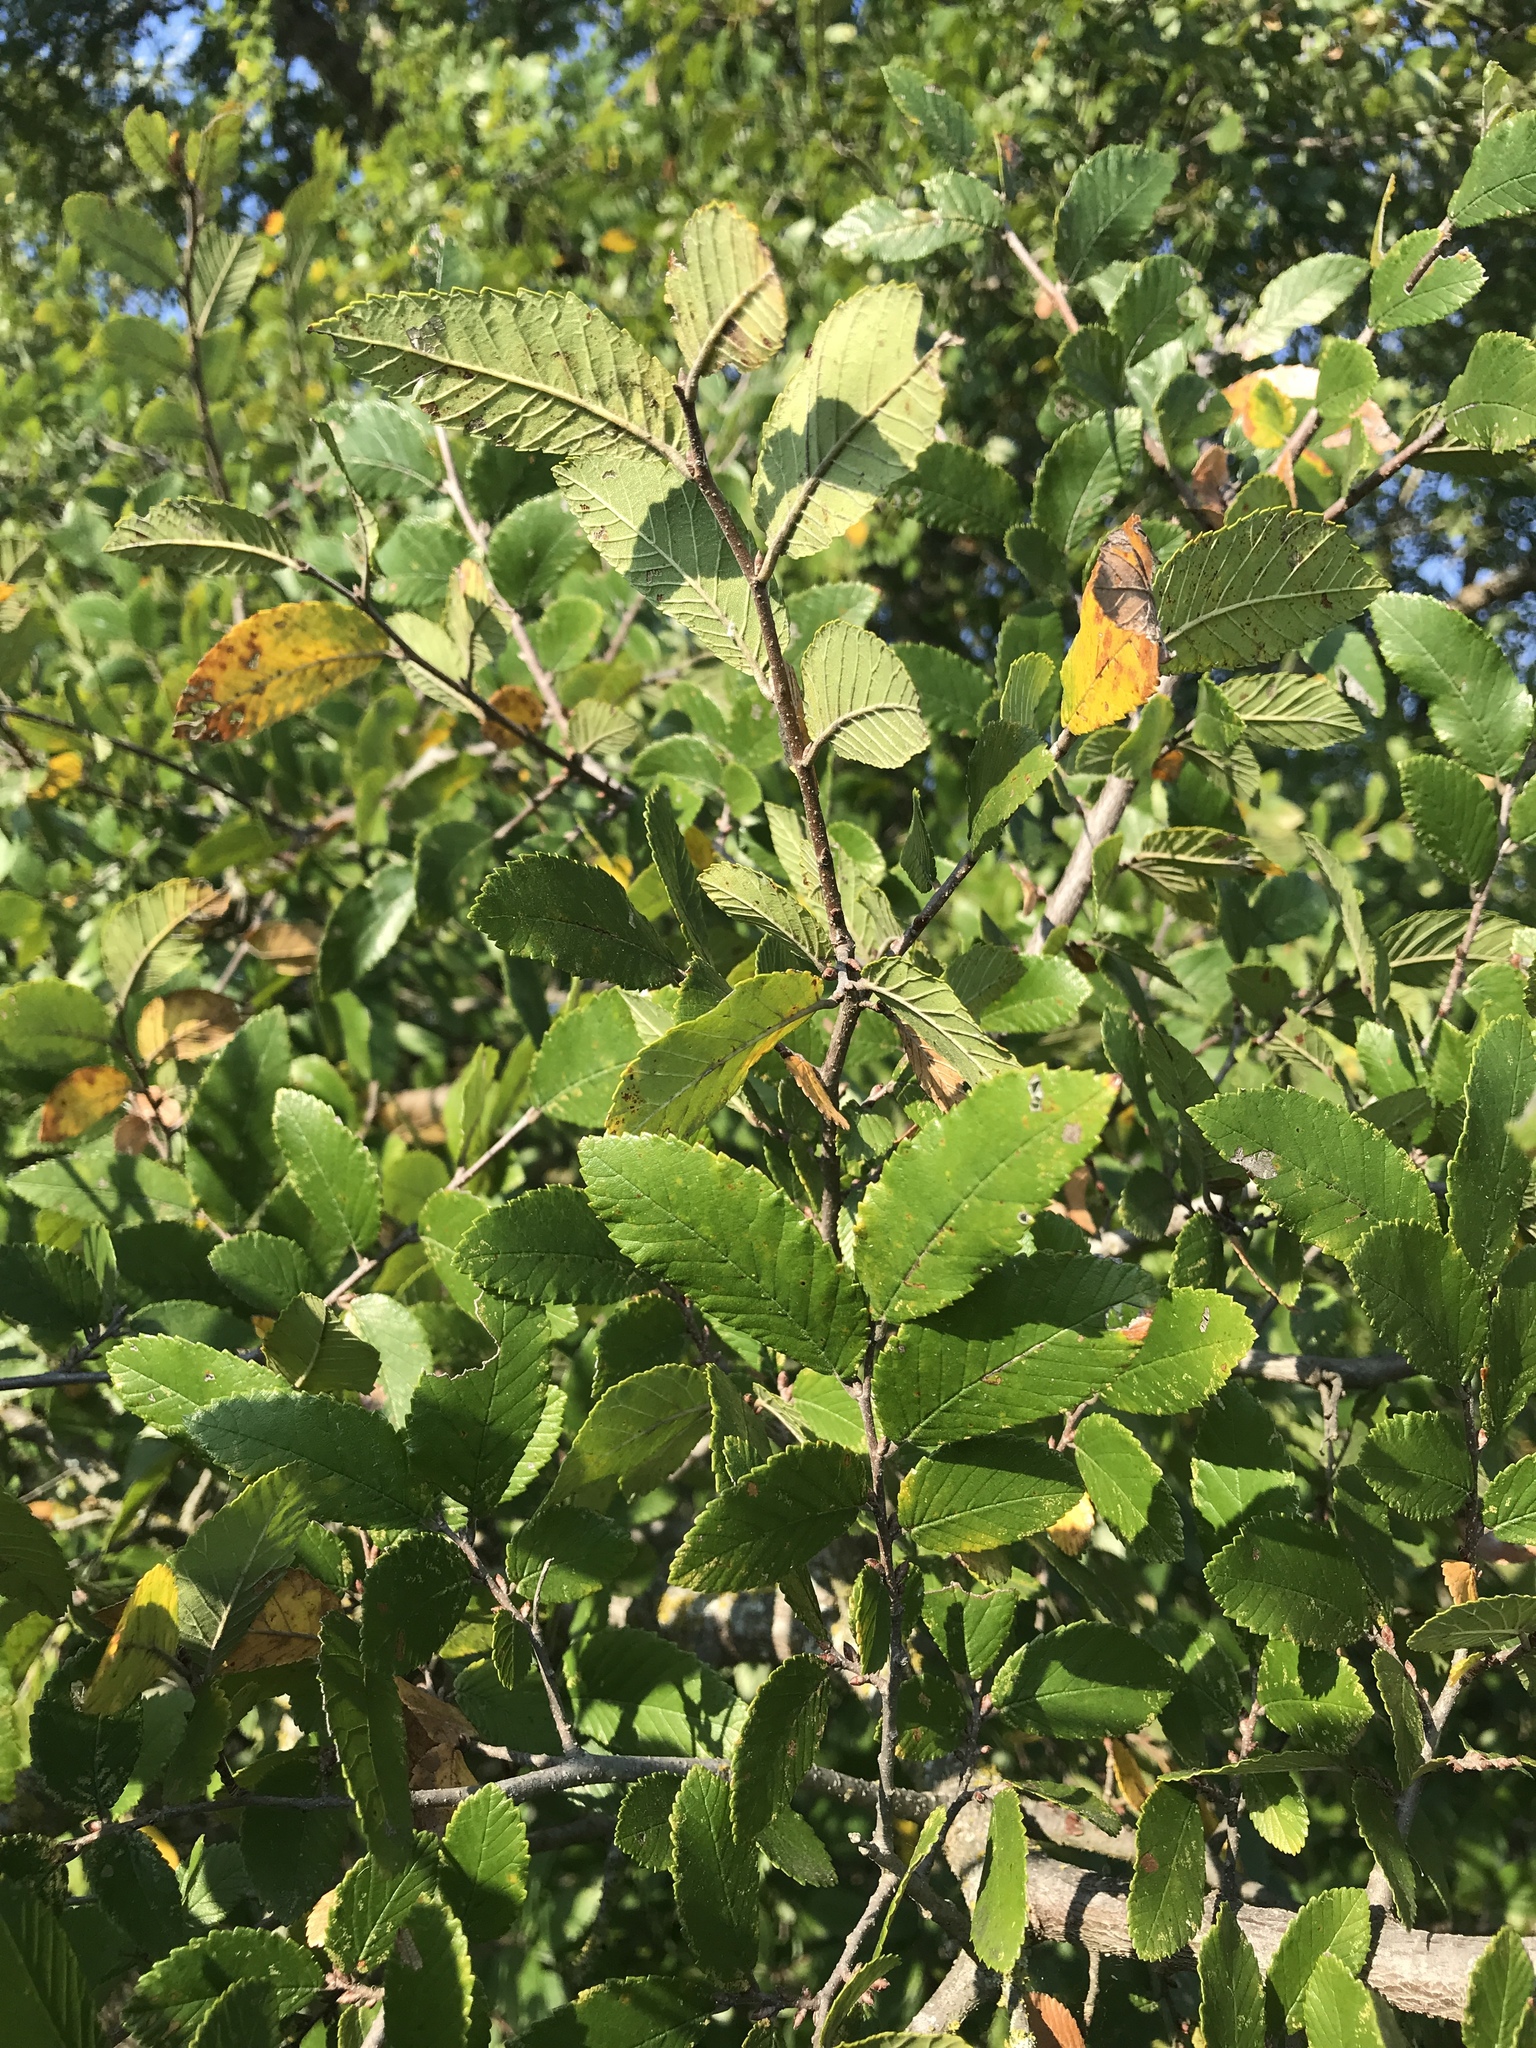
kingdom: Plantae
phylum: Tracheophyta
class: Magnoliopsida
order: Rosales
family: Ulmaceae
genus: Ulmus
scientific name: Ulmus crassifolia
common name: Basket elm
